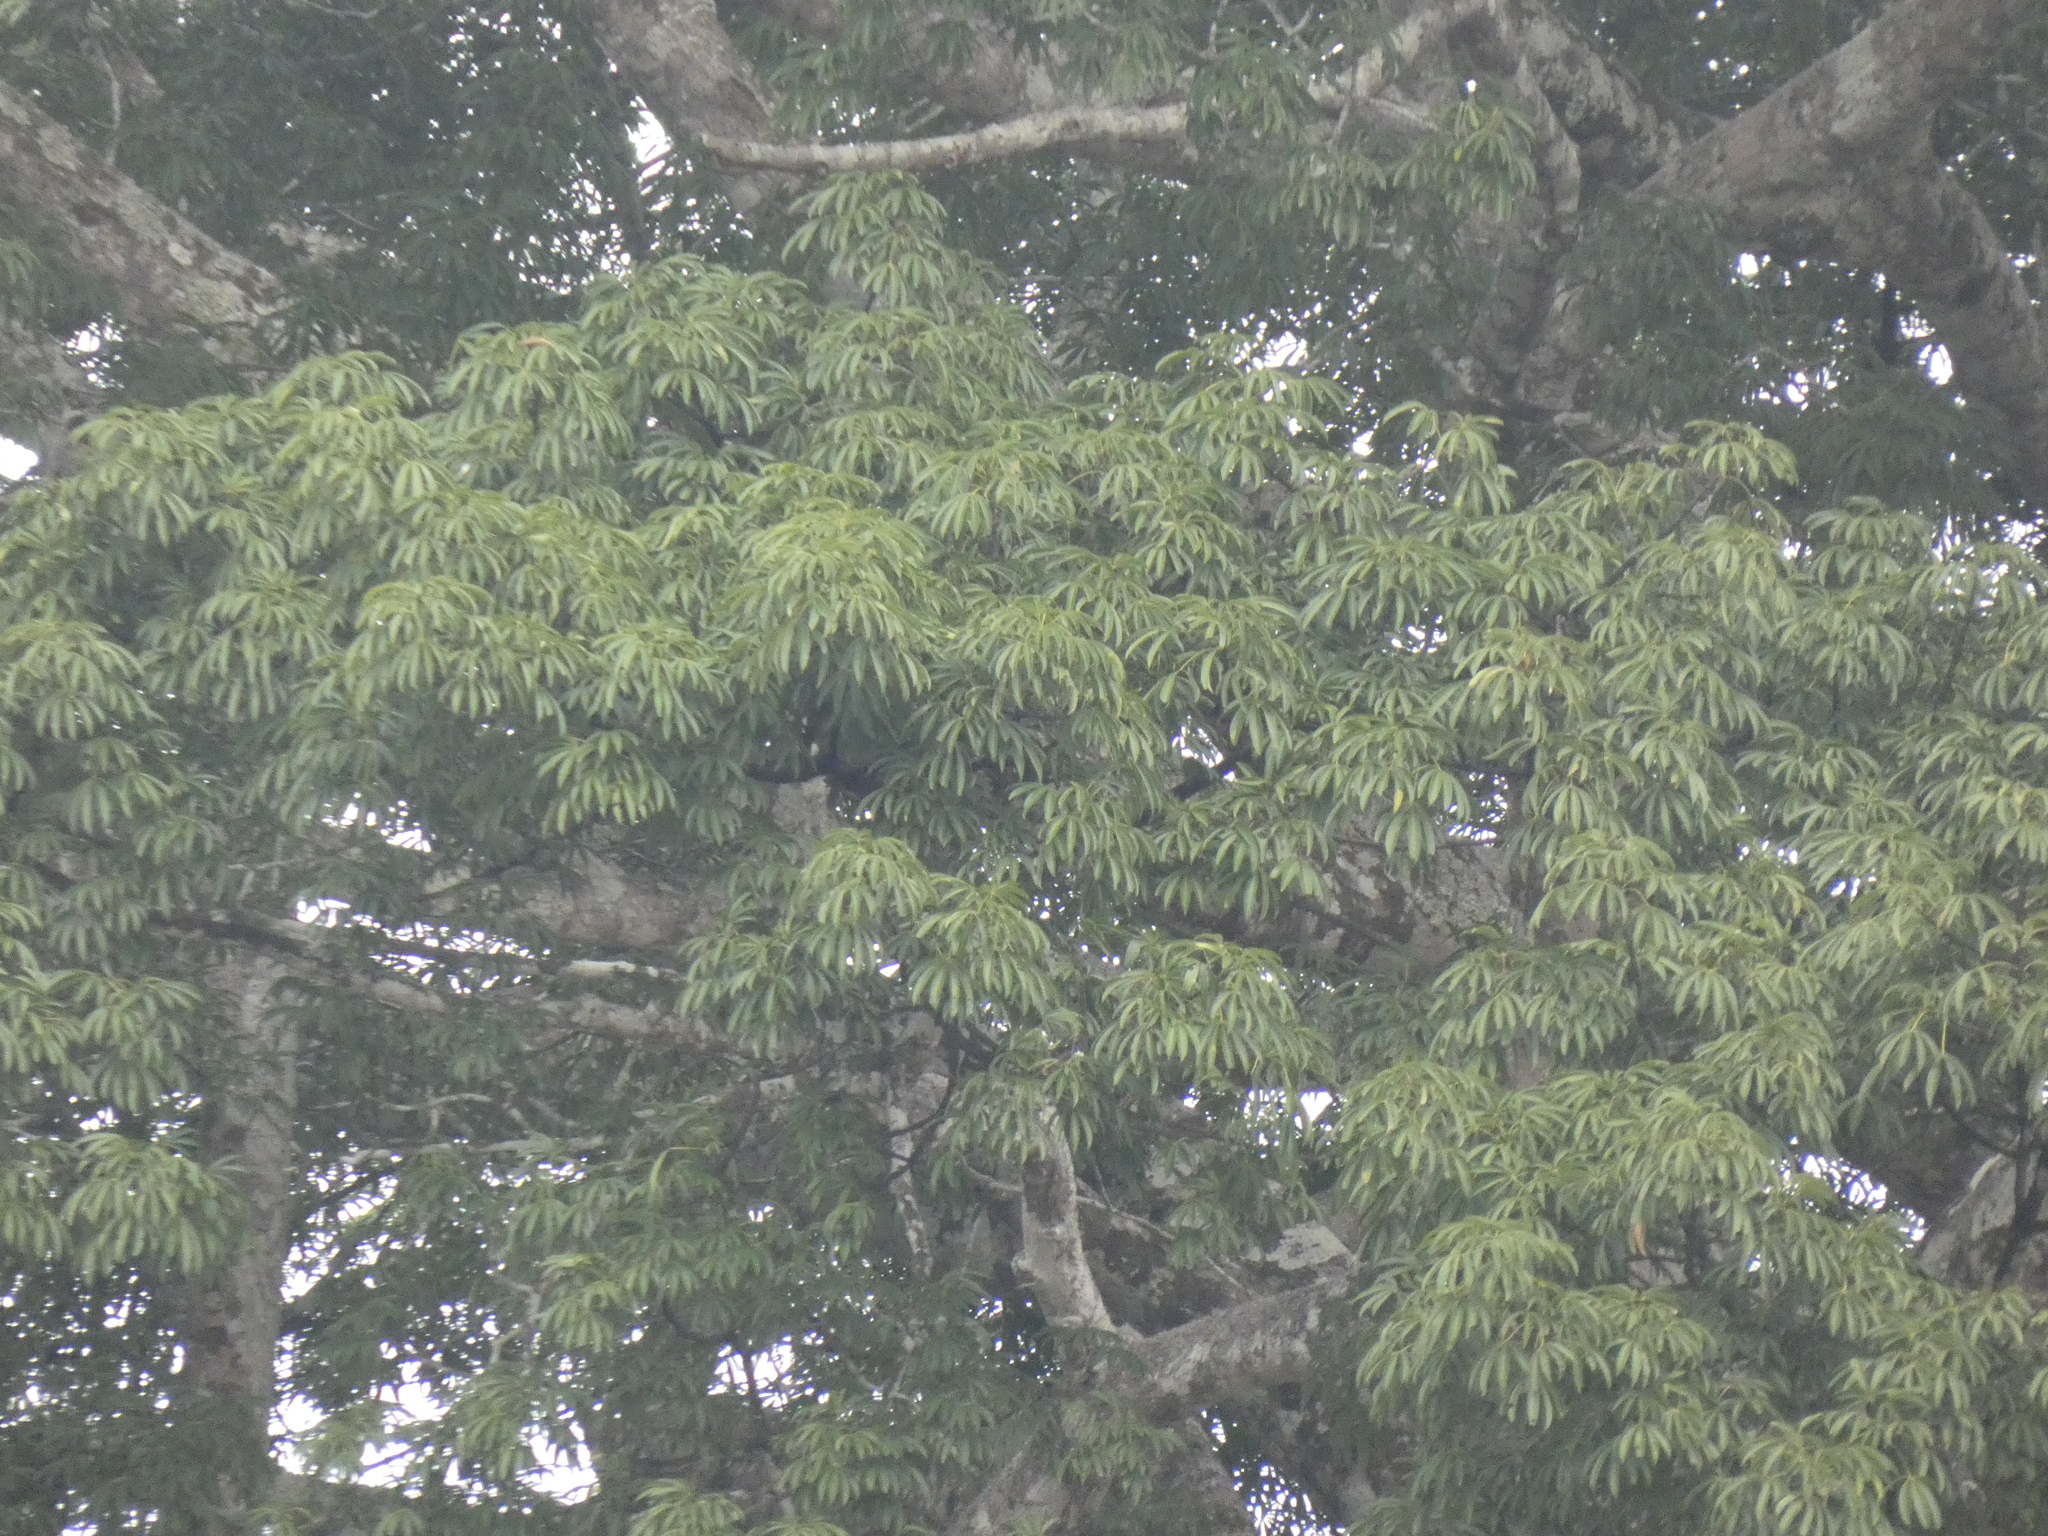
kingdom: Plantae
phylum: Tracheophyta
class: Magnoliopsida
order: Malvales
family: Malvaceae
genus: Ceiba
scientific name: Ceiba pentandra
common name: Kapok
